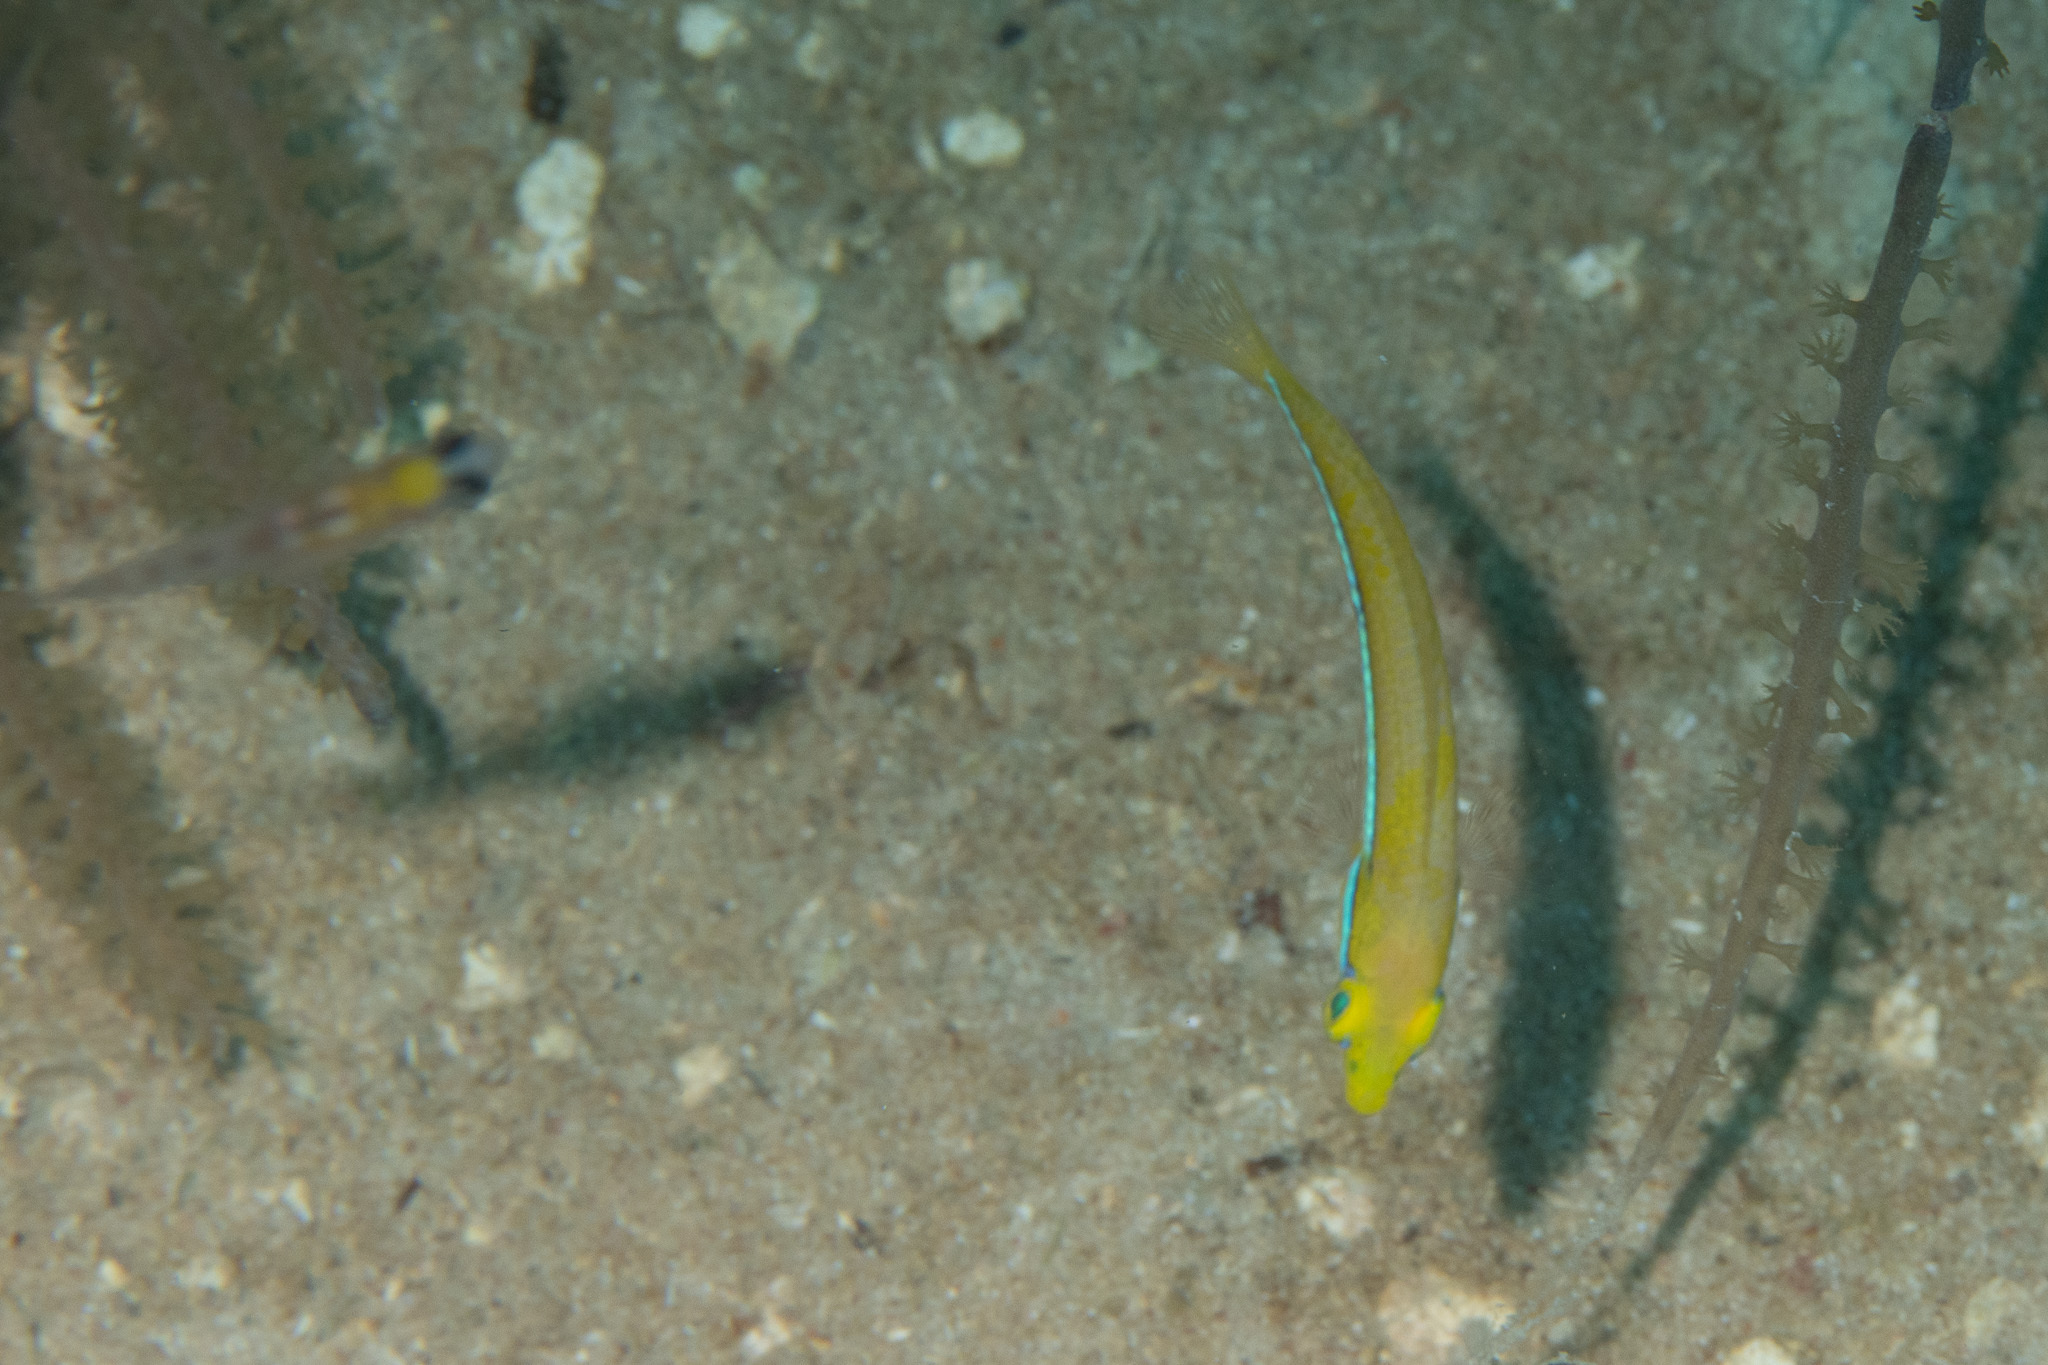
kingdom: Animalia
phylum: Chordata
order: Perciformes
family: Labridae
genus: Halichoeres
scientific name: Halichoeres garnoti
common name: Yellowhead wrasse
